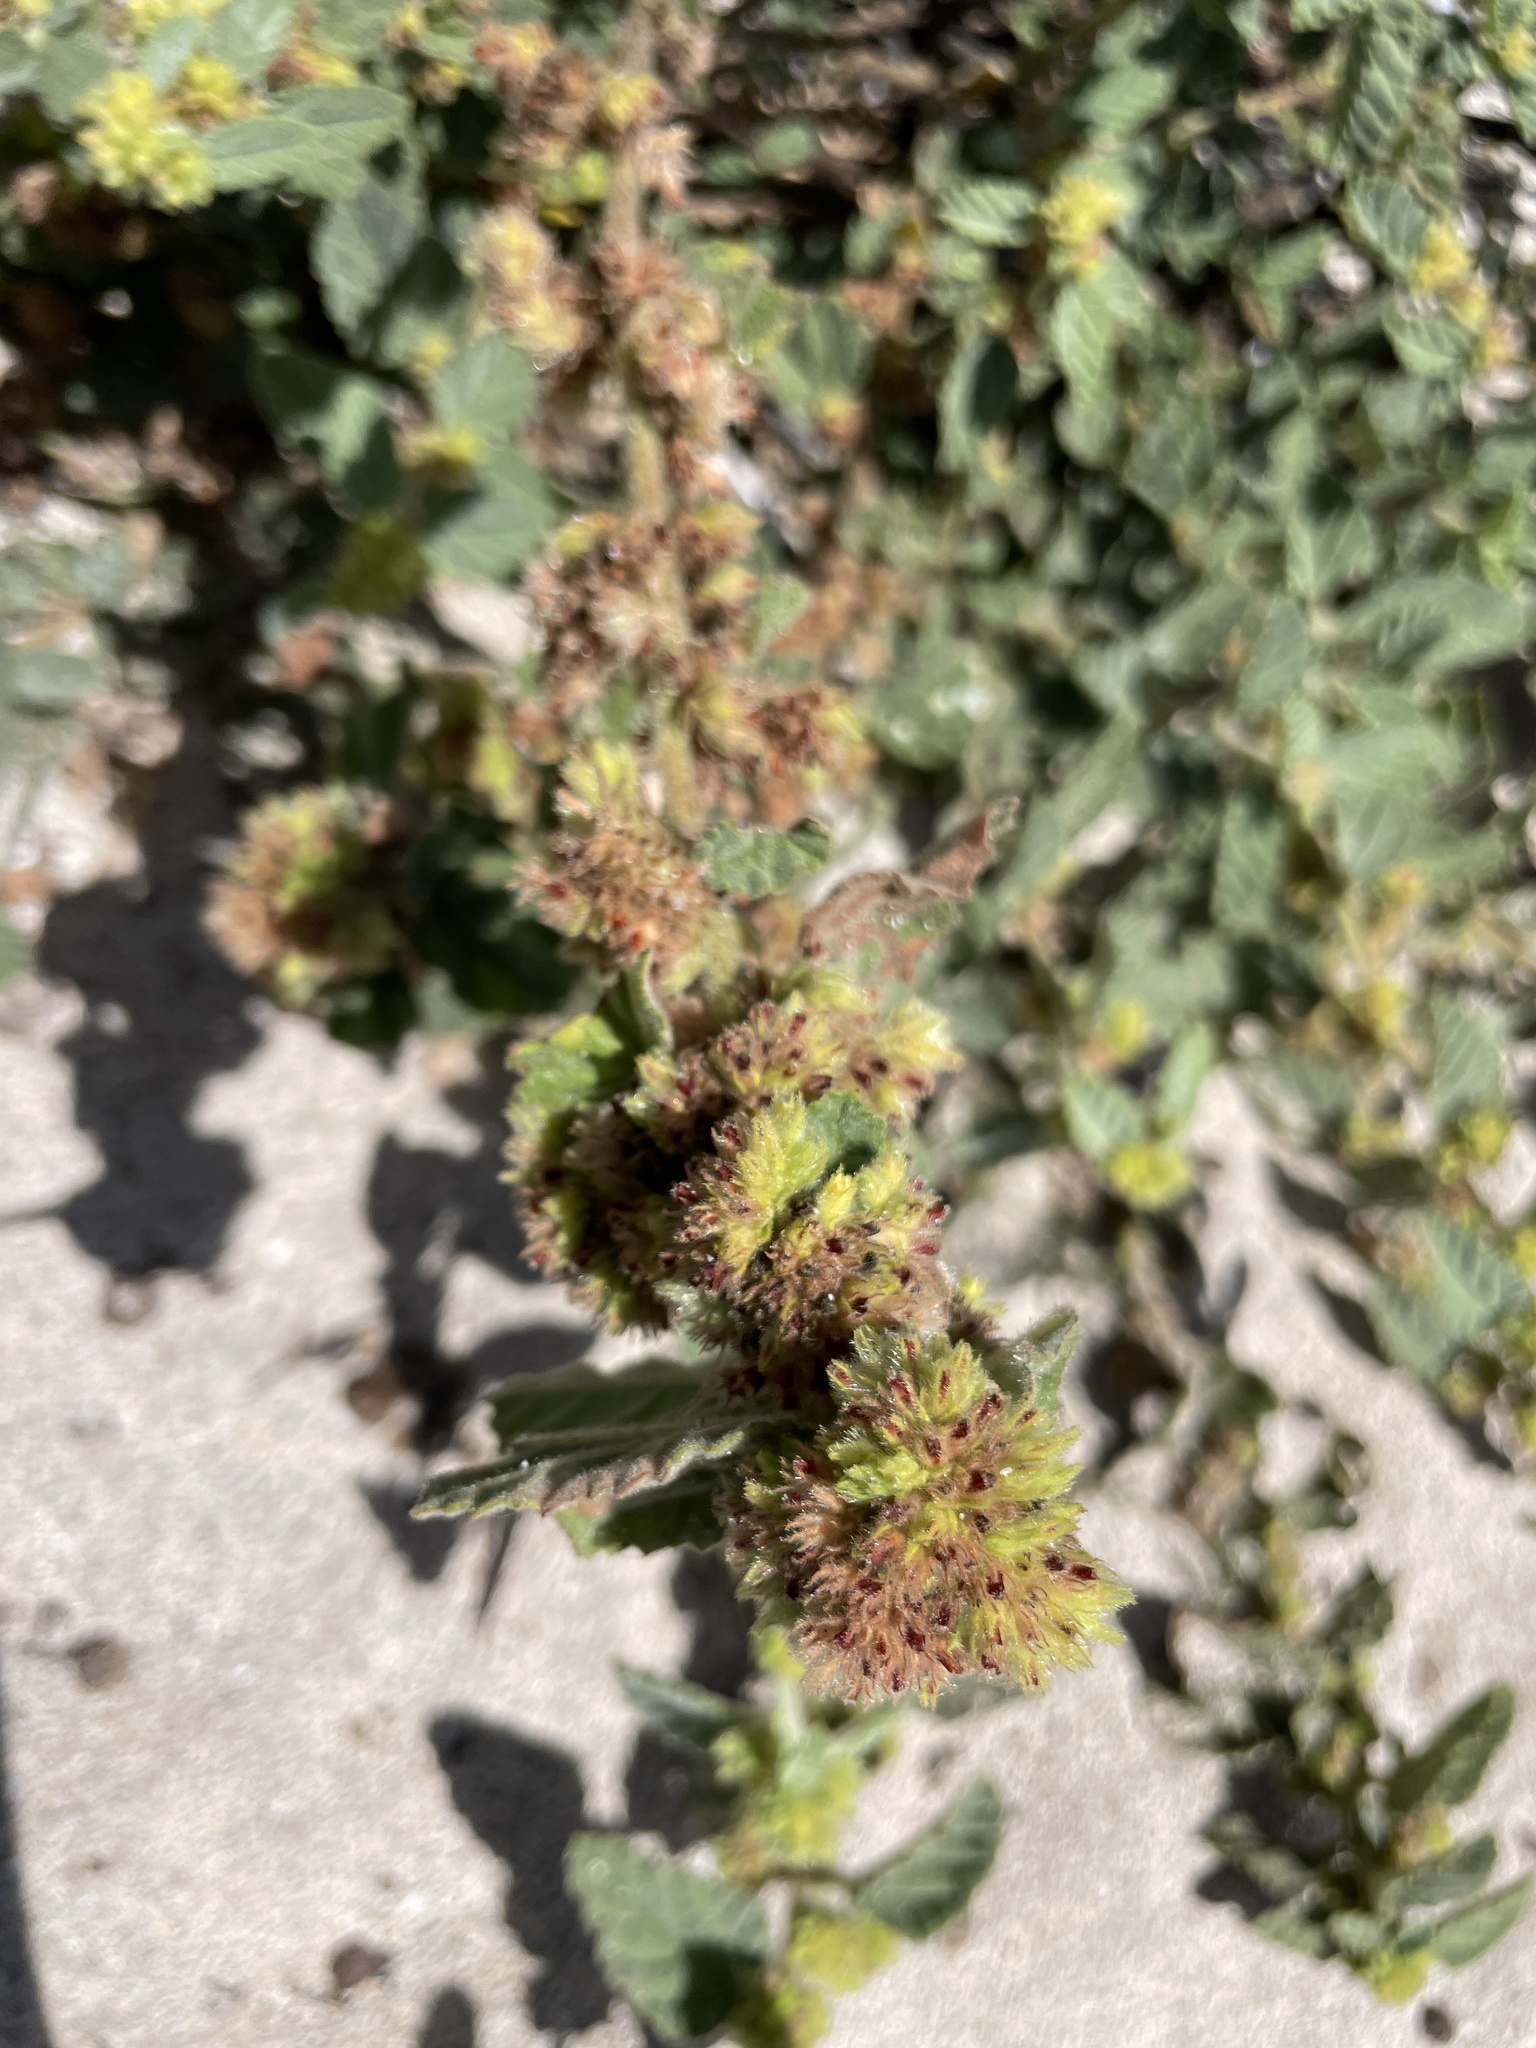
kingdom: Plantae
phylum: Tracheophyta
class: Magnoliopsida
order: Malvales
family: Malvaceae
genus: Waltheria
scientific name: Waltheria indica
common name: Leather-coat
